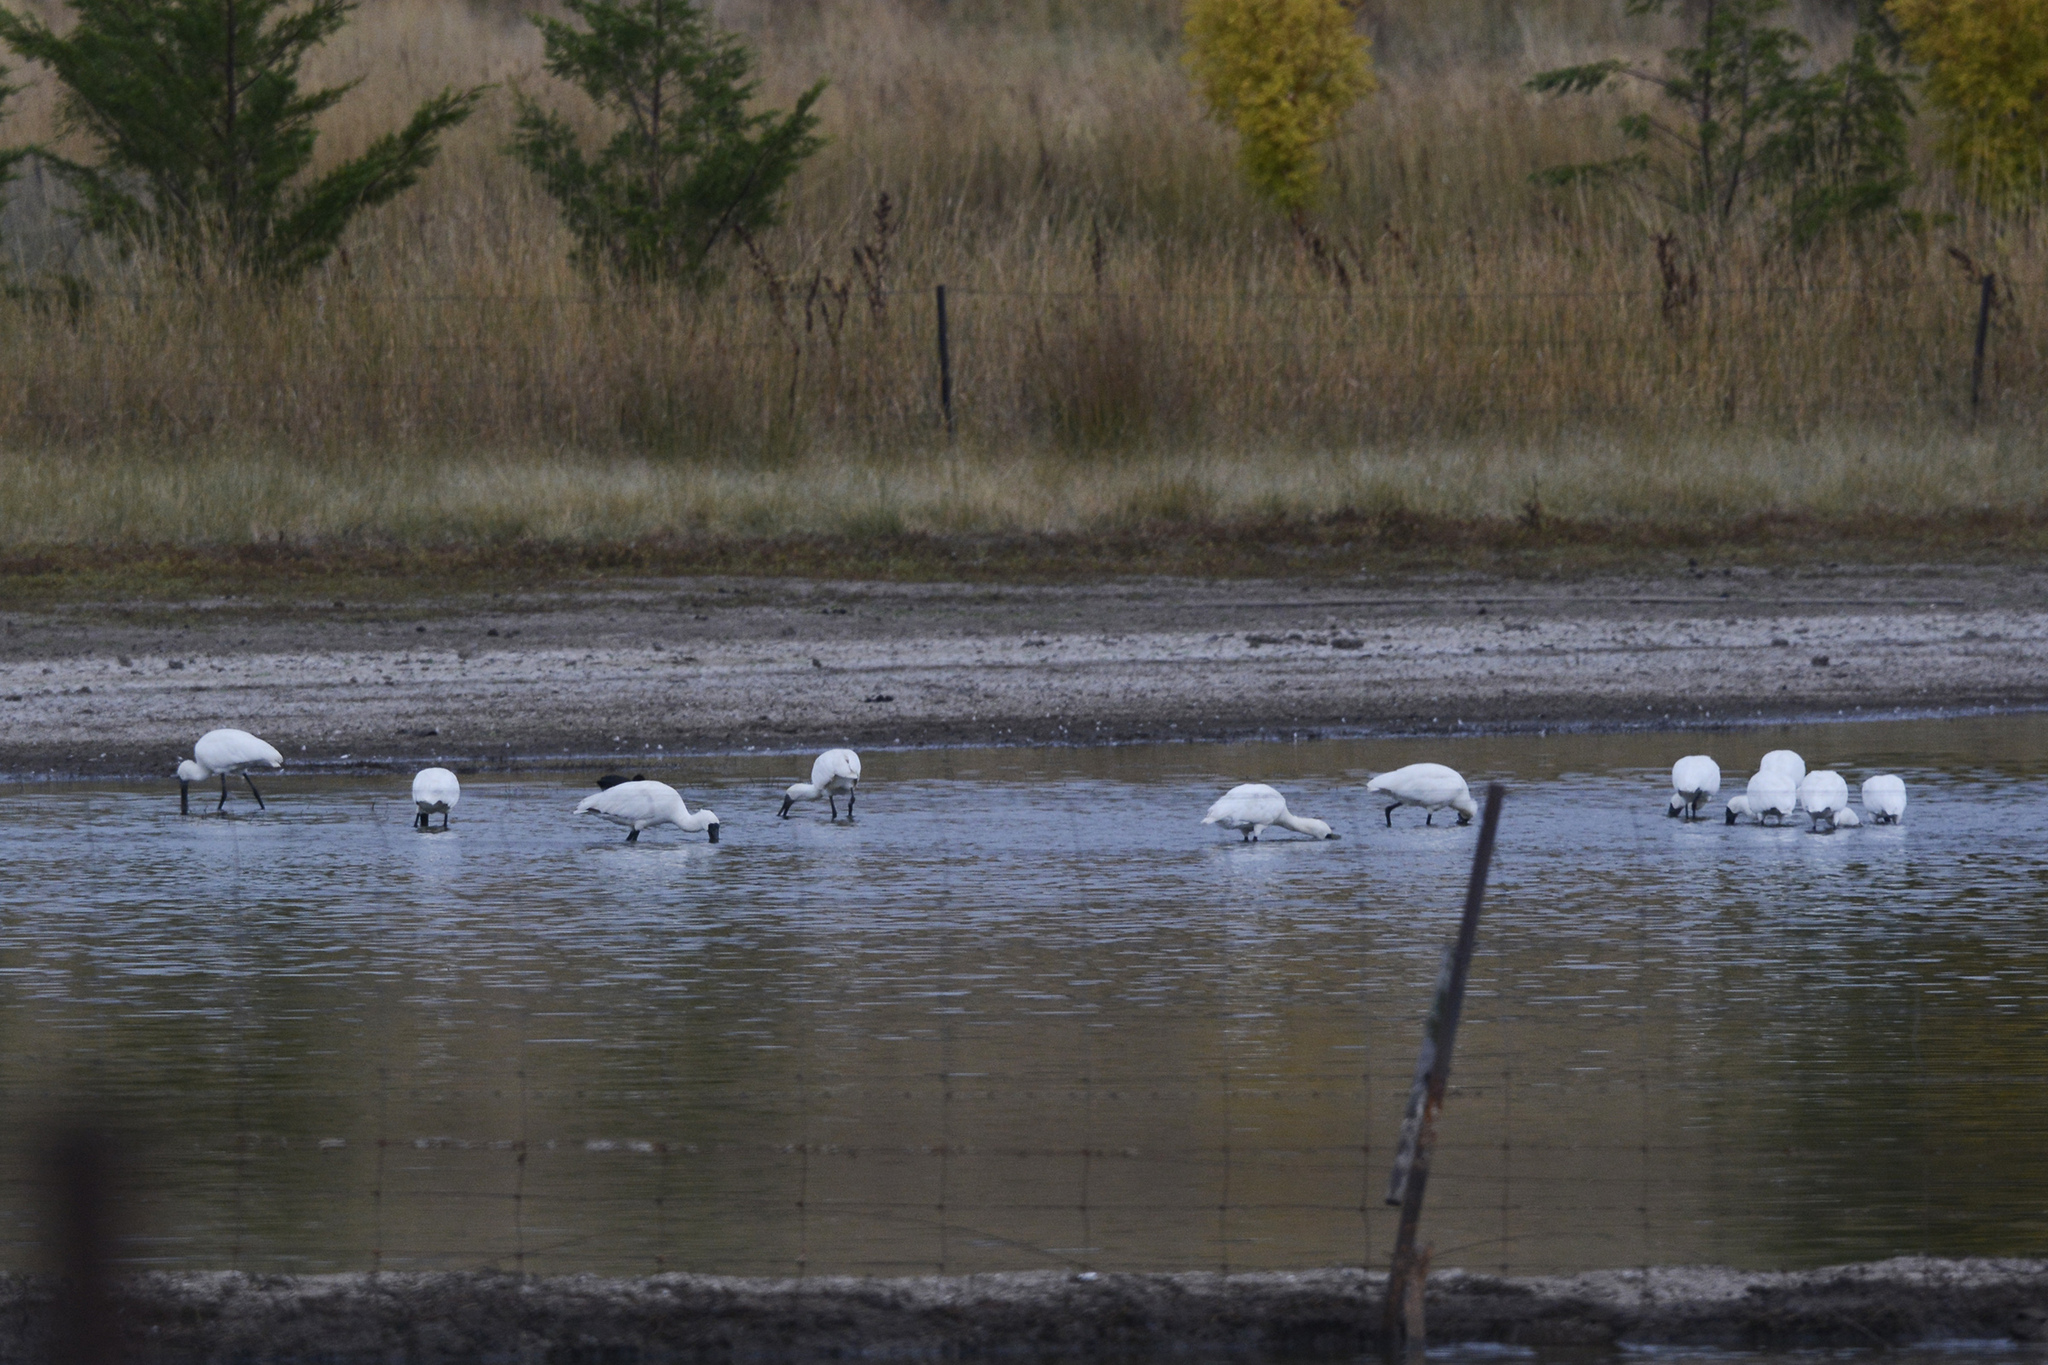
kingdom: Animalia
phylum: Chordata
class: Aves
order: Pelecaniformes
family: Threskiornithidae
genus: Platalea
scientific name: Platalea regia
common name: Royal spoonbill
